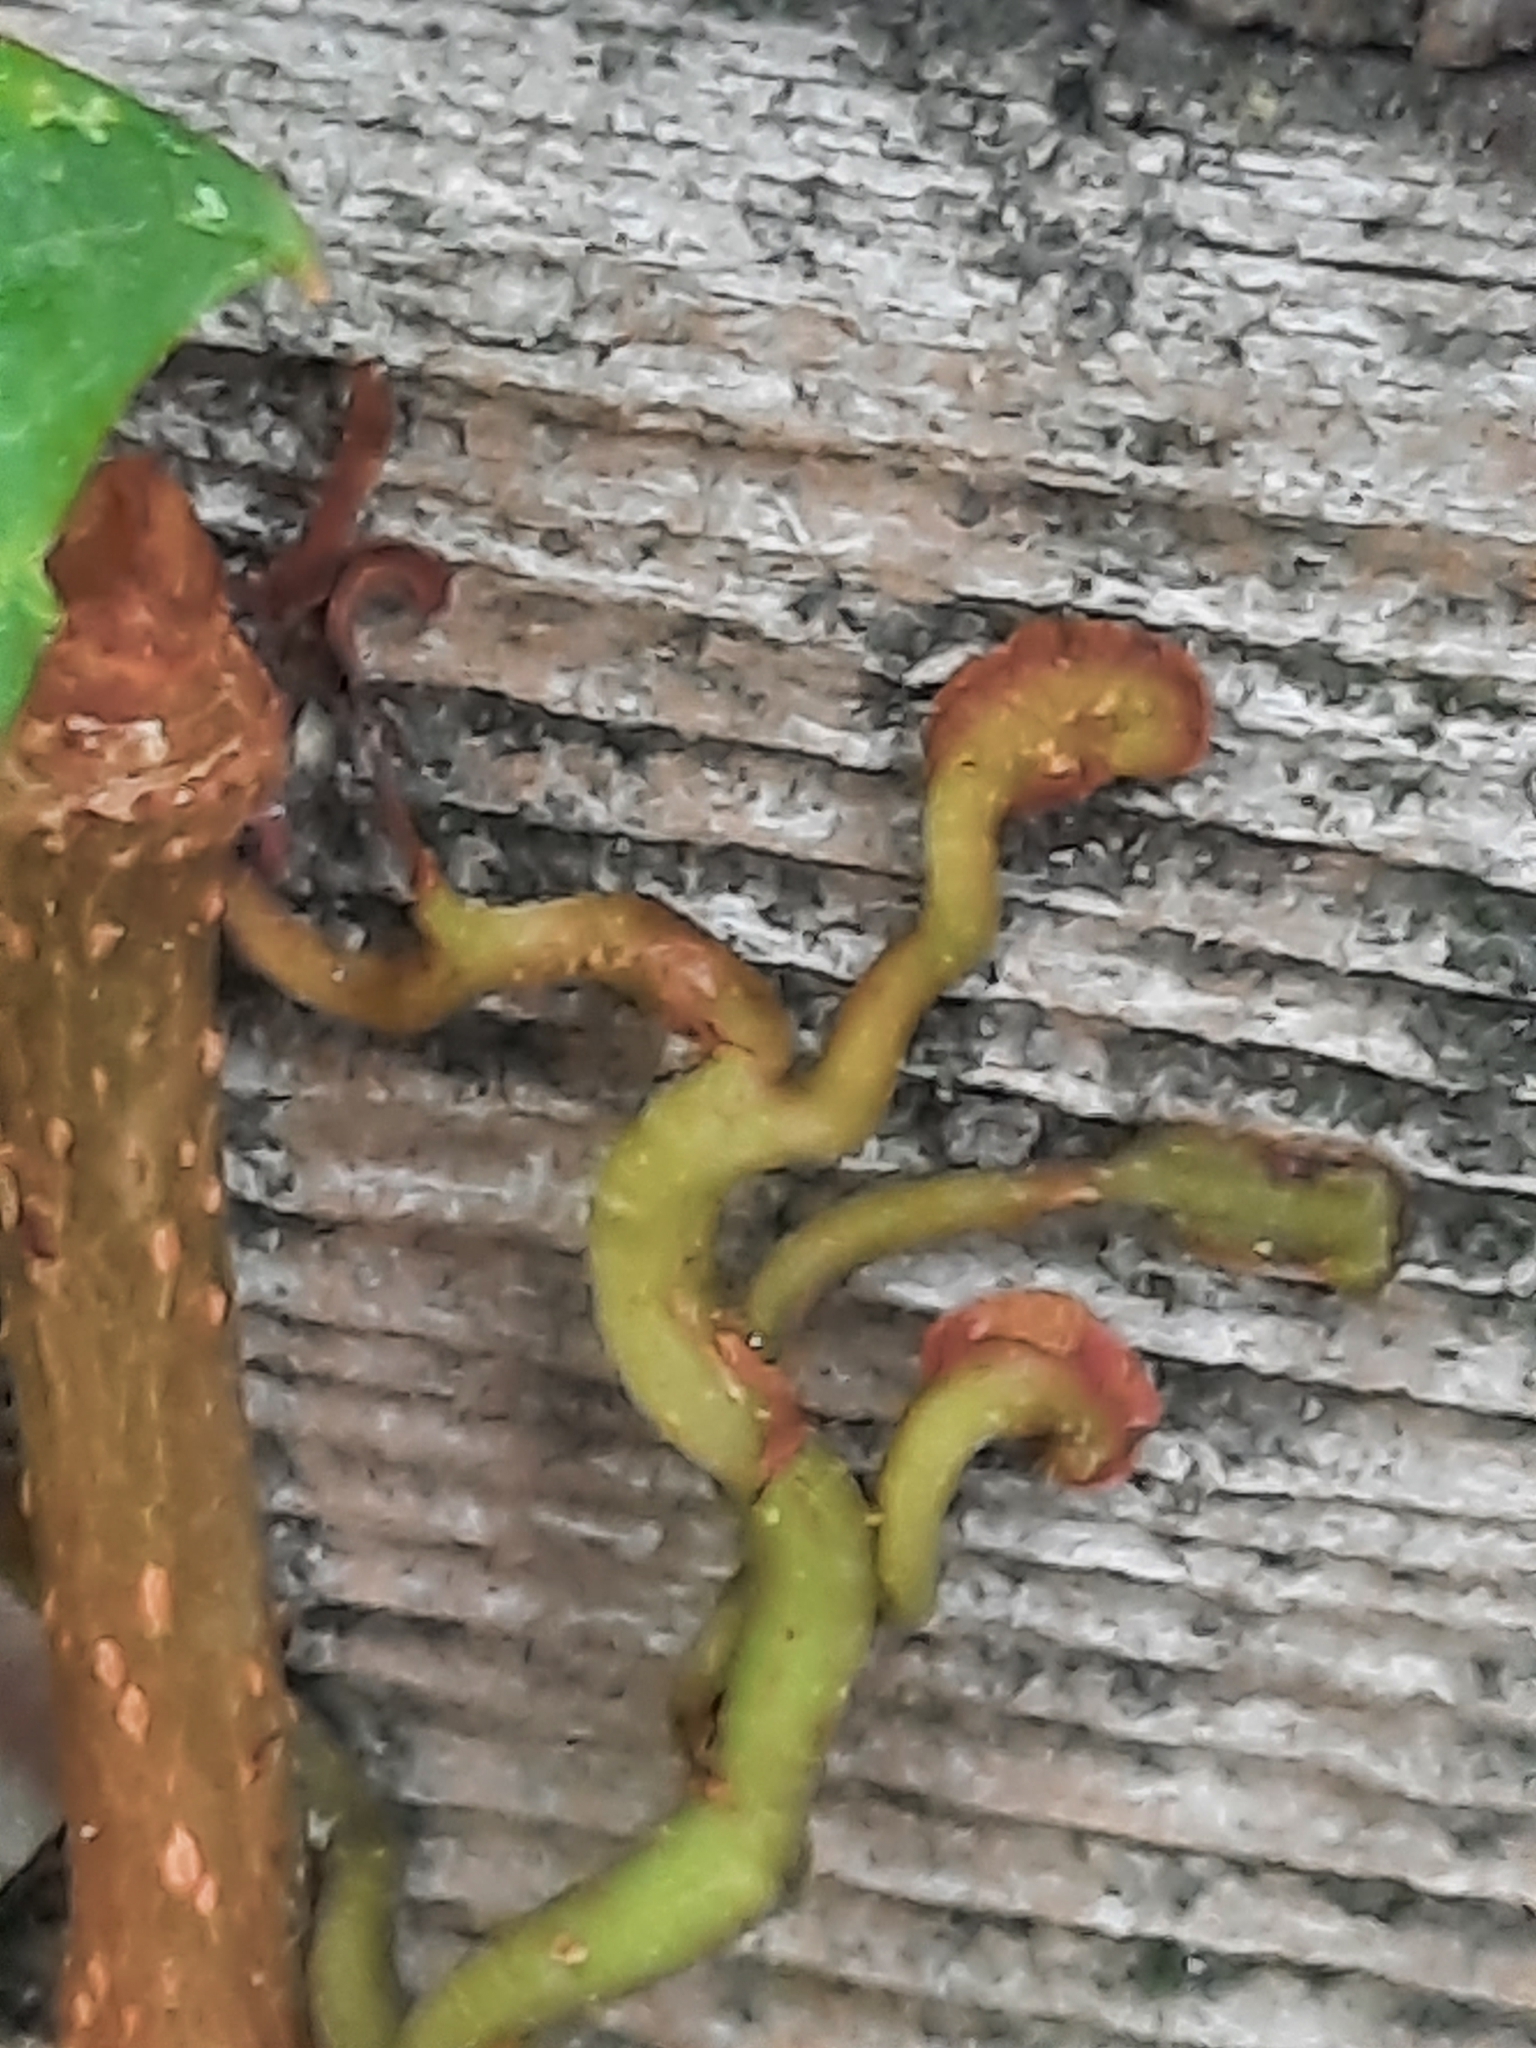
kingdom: Plantae
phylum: Tracheophyta
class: Magnoliopsida
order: Vitales
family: Vitaceae
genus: Parthenocissus
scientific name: Parthenocissus quinquefolia
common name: Virginia-creeper
